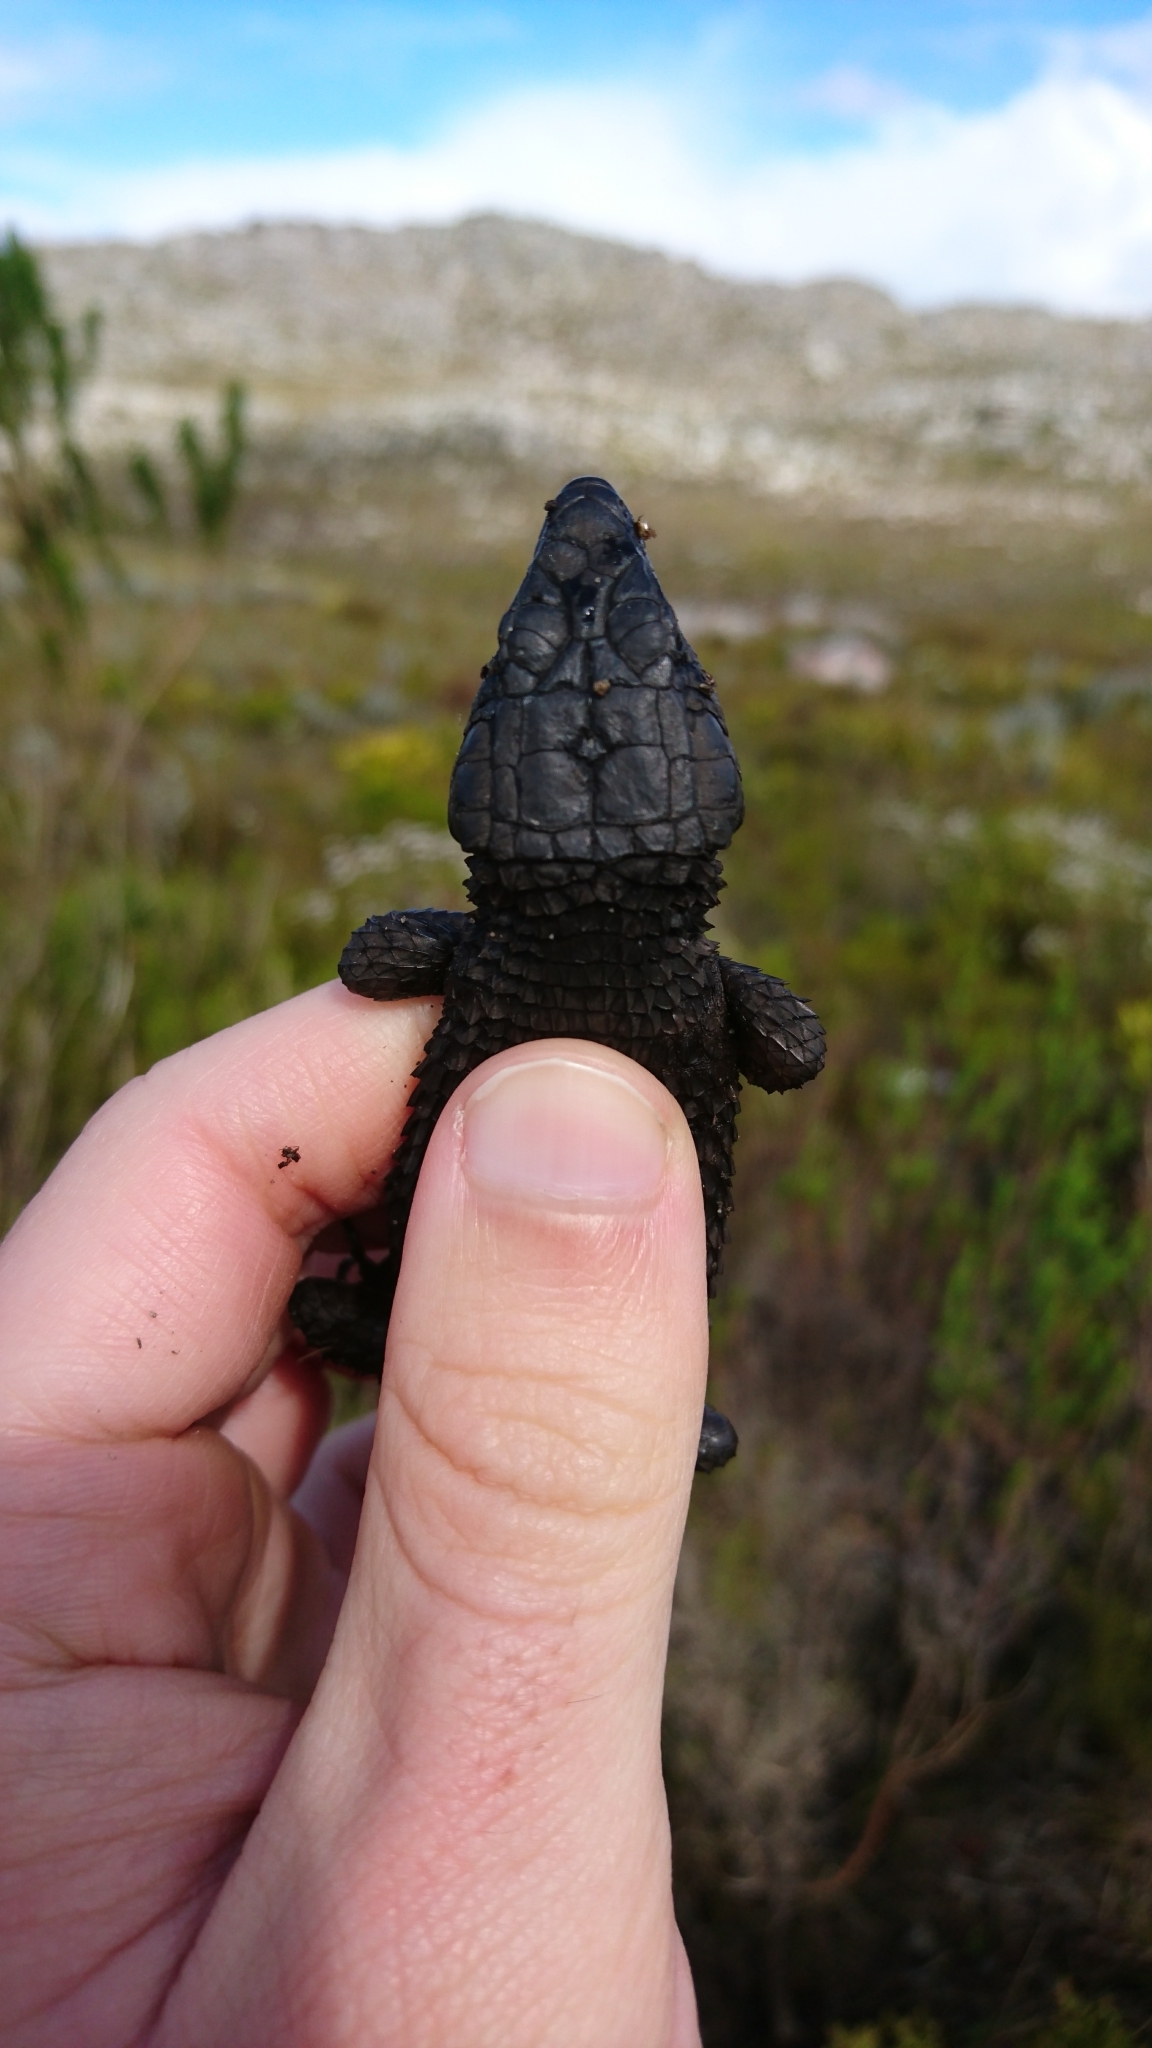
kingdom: Animalia
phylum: Chordata
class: Squamata
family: Cordylidae
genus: Cordylus
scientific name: Cordylus niger
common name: Black girdled lizard
